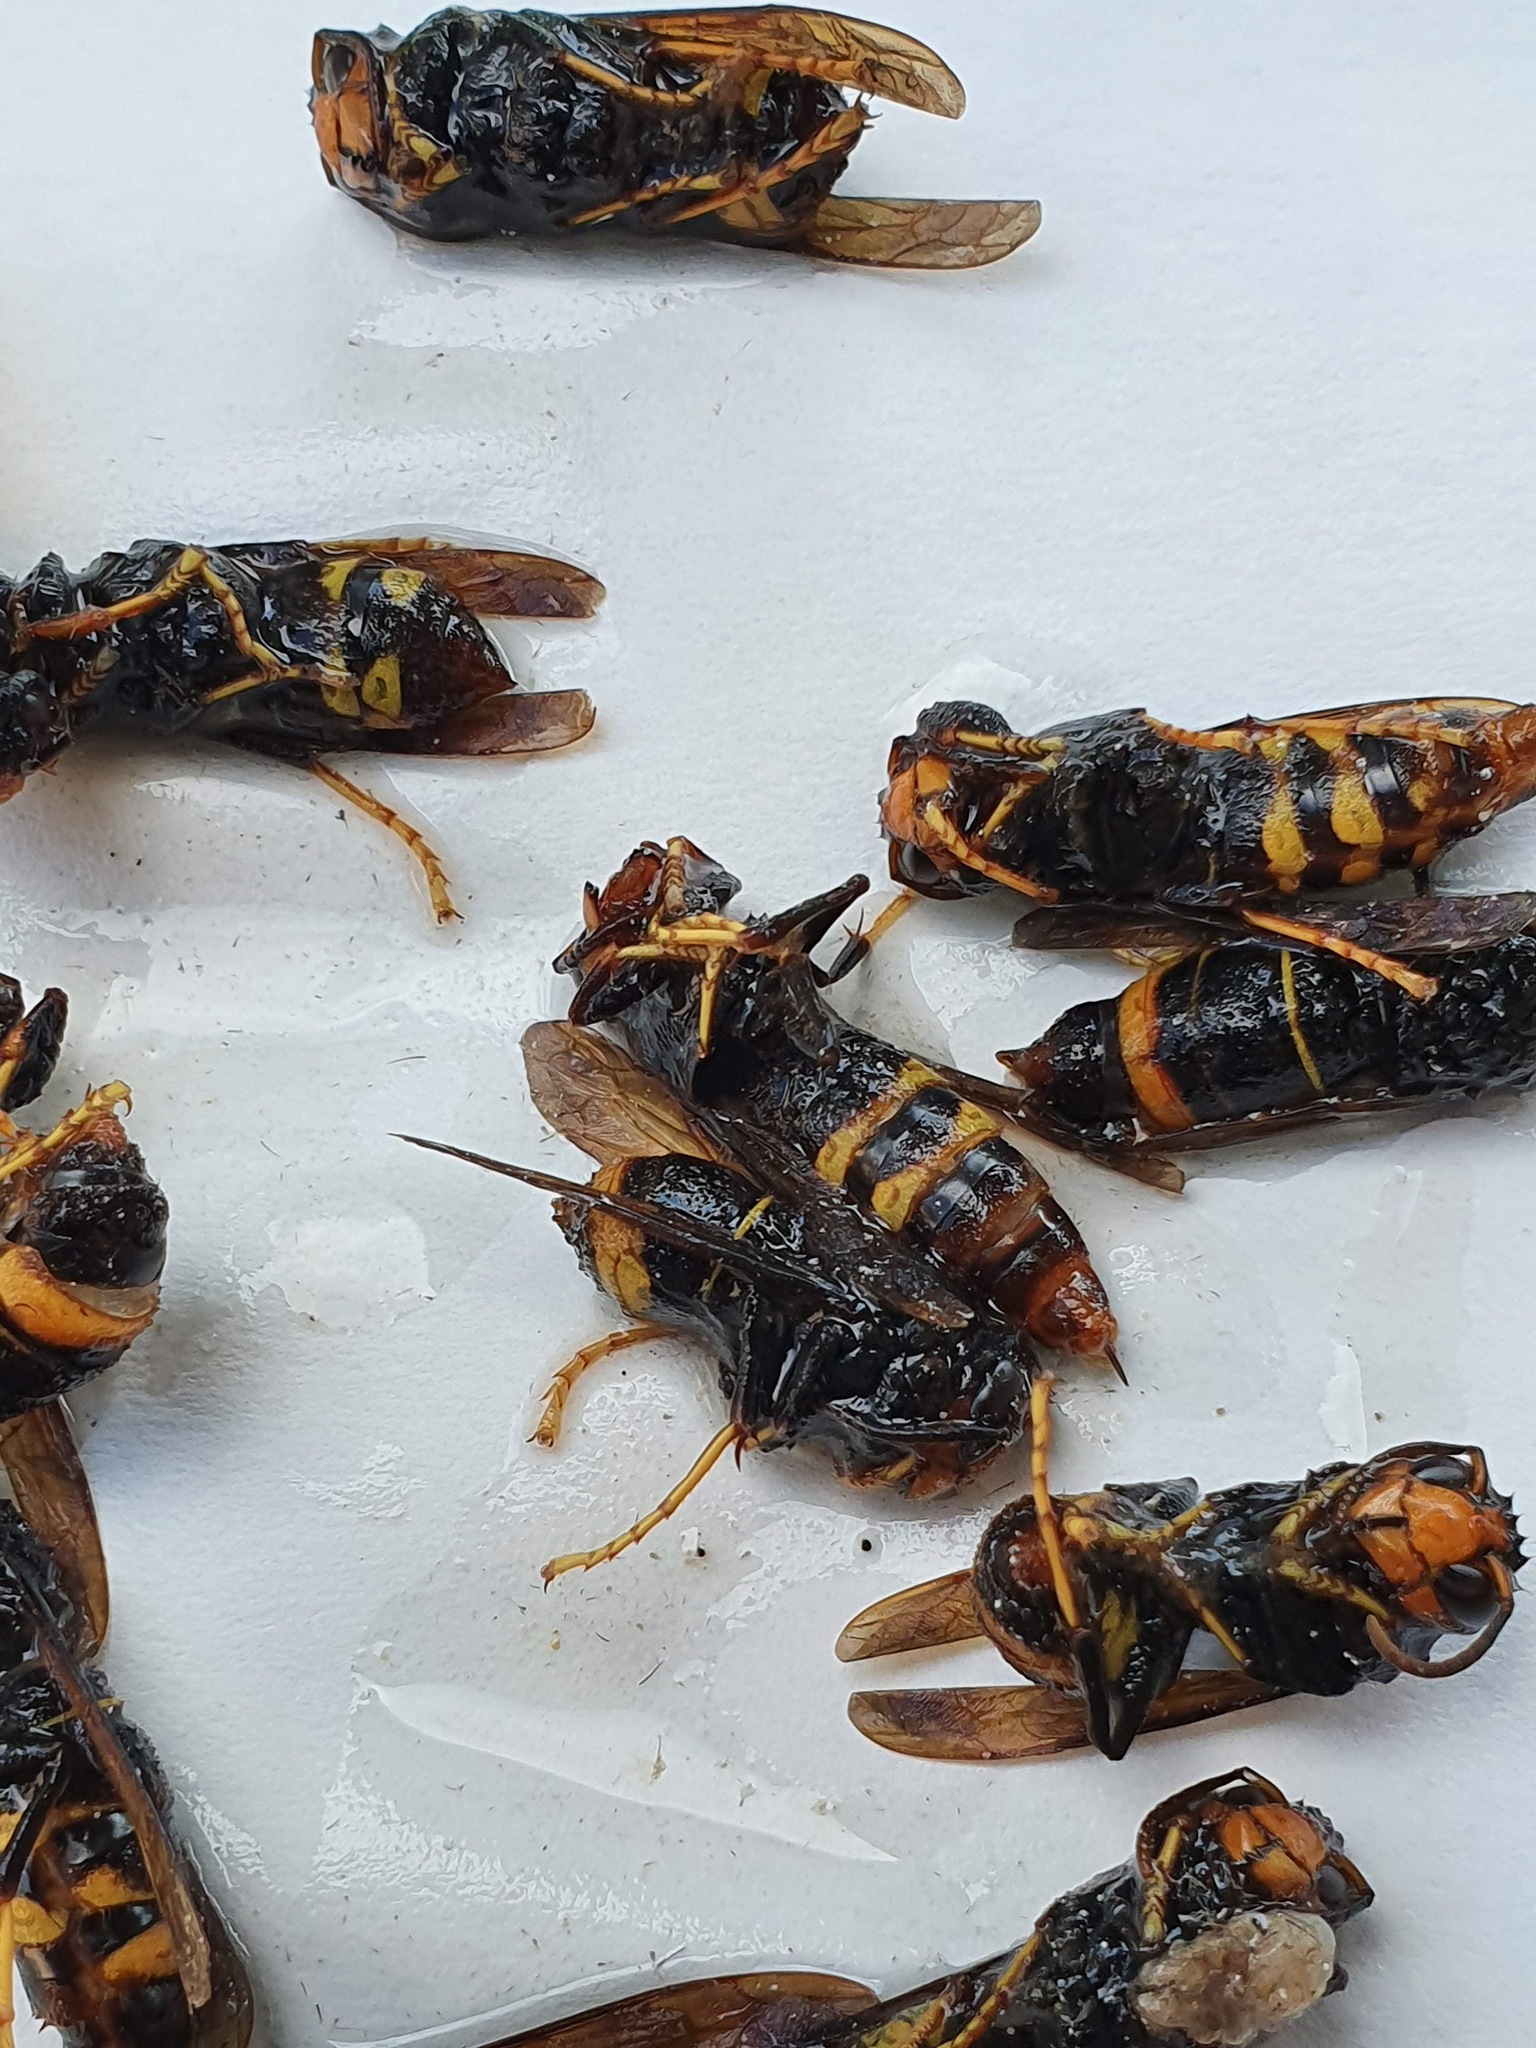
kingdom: Animalia
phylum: Arthropoda
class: Insecta
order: Hymenoptera
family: Vespidae
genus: Vespa
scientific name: Vespa velutina
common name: Asian hornet
